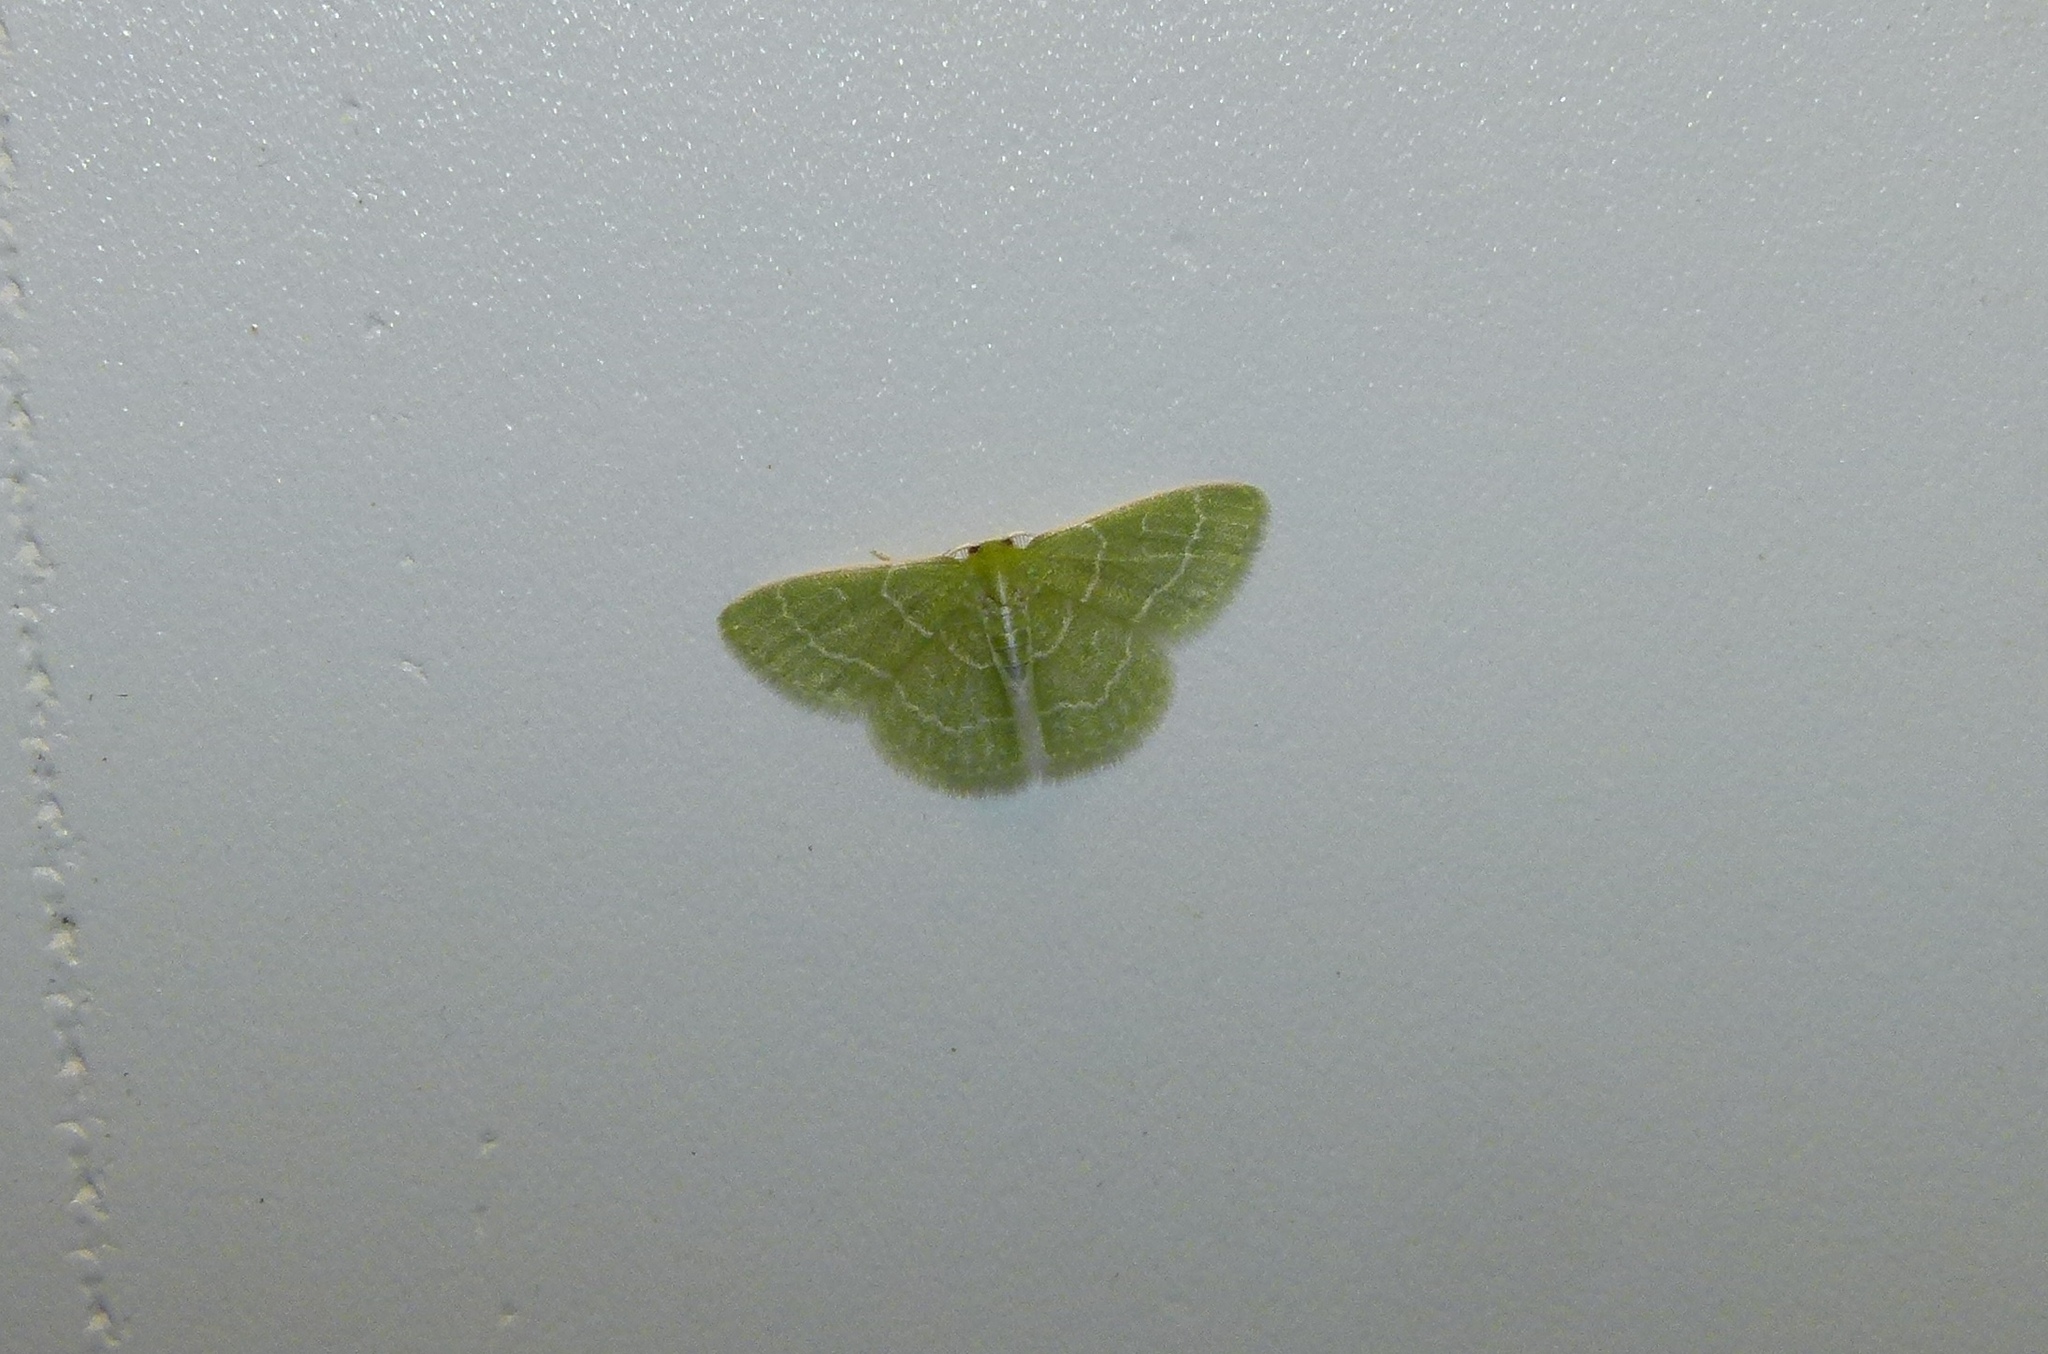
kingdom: Animalia
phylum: Arthropoda
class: Insecta
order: Lepidoptera
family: Geometridae
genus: Synchlora
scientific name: Synchlora aerata
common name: Wavy-lined emerald
